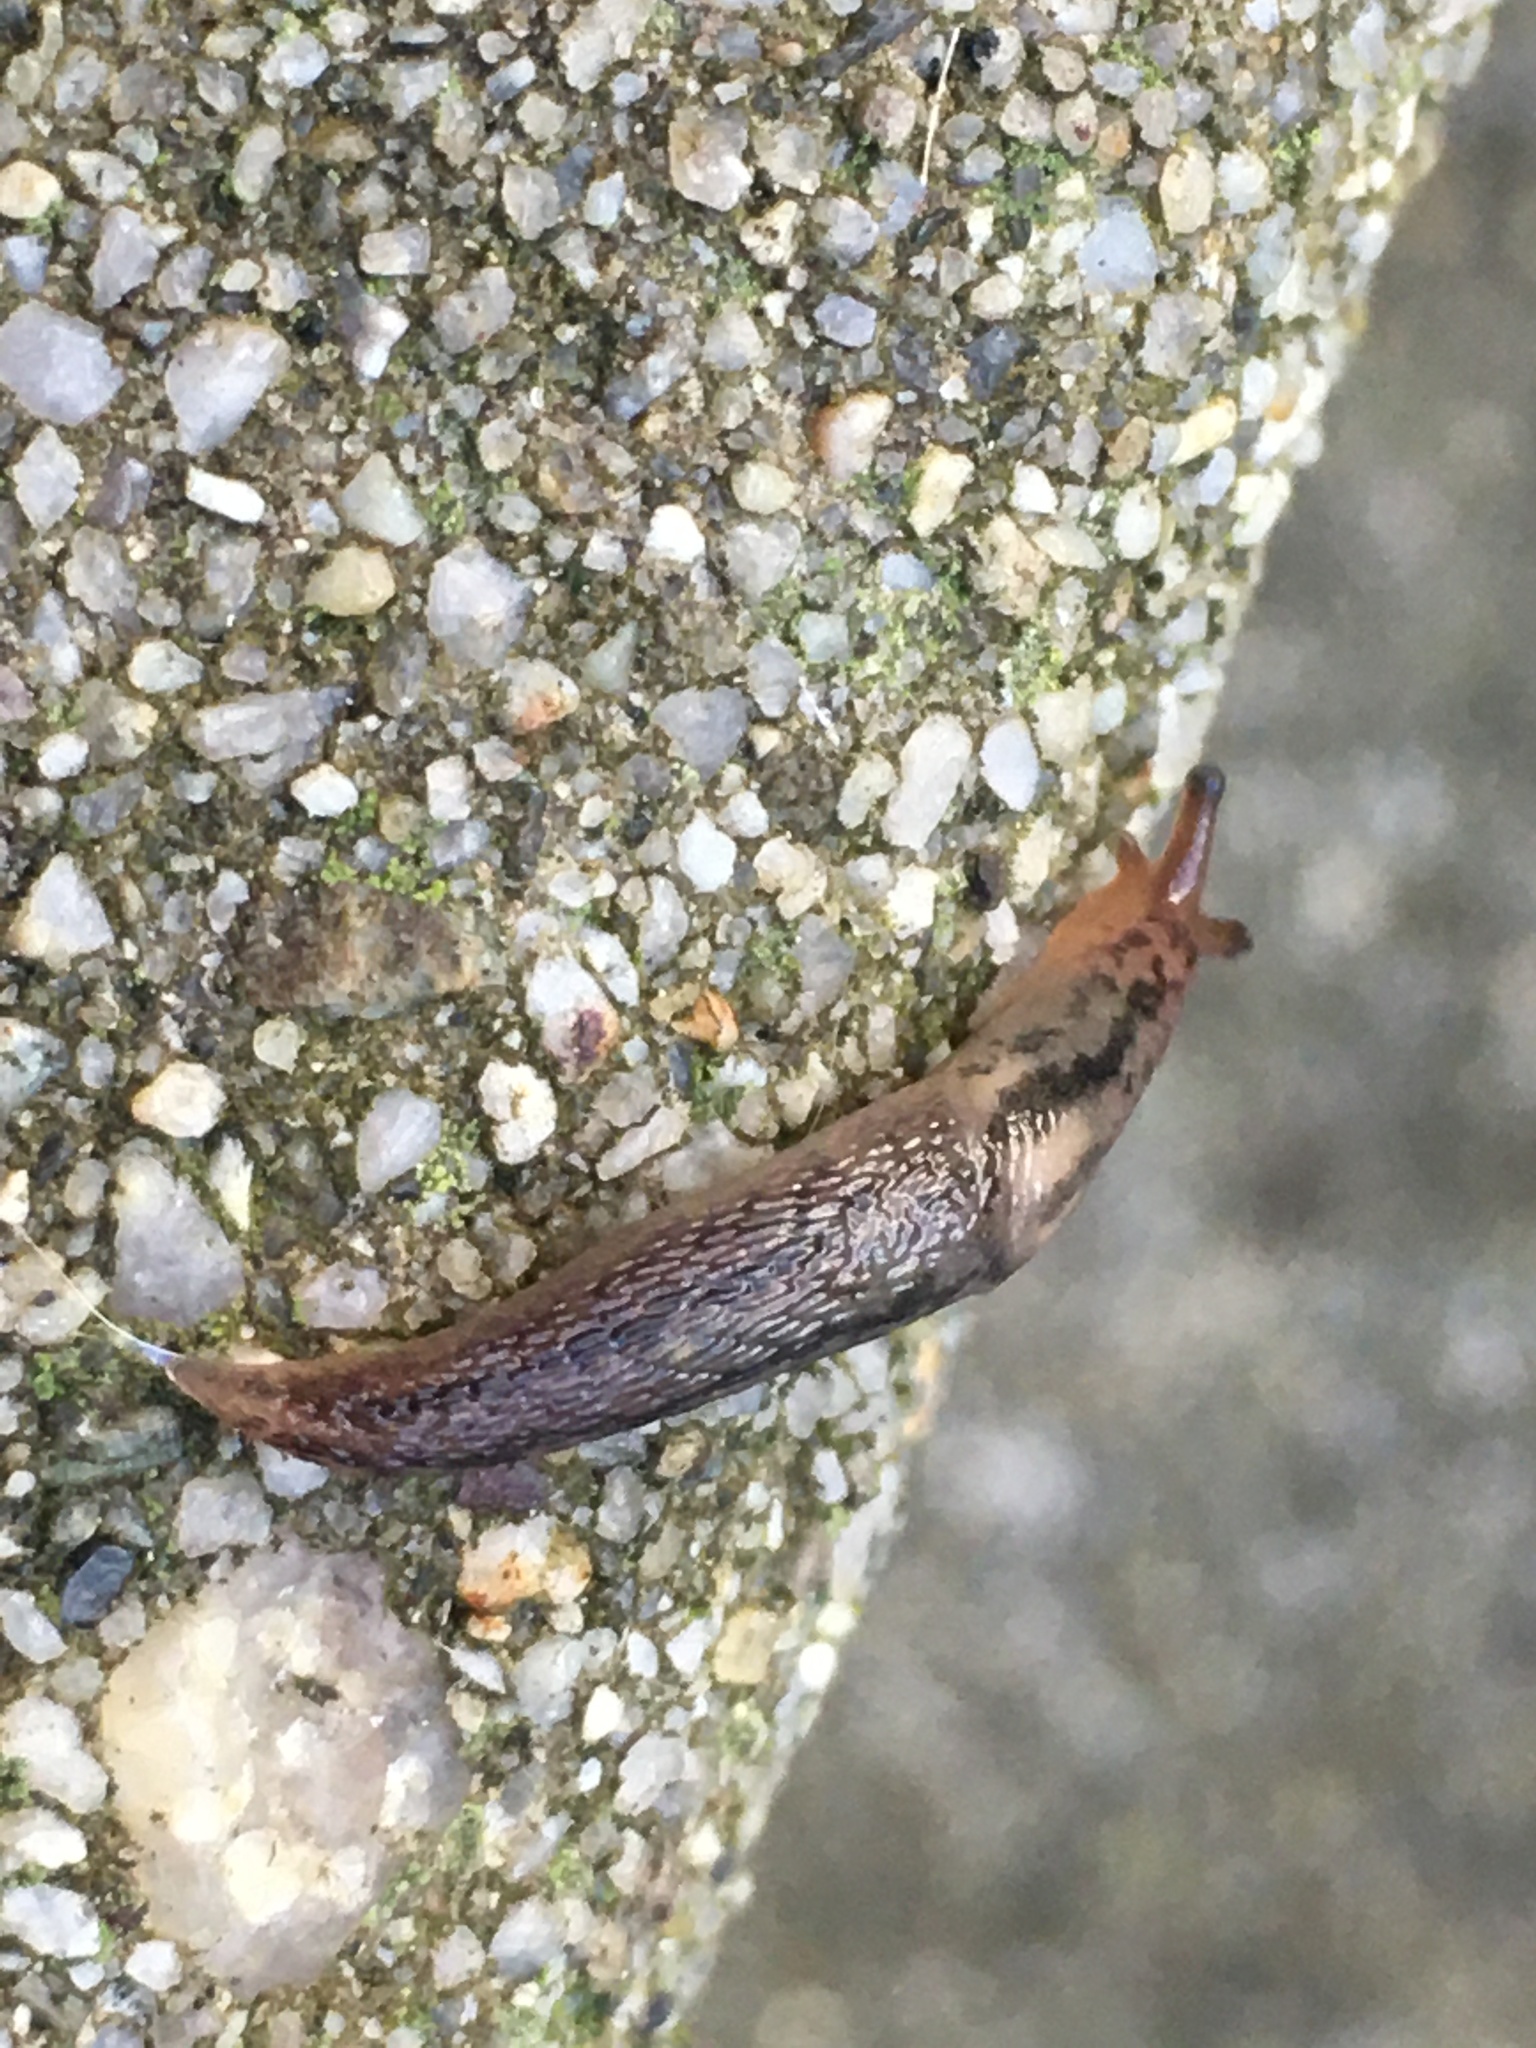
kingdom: Animalia
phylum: Mollusca
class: Gastropoda
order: Stylommatophora
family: Limacidae
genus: Ambigolimax
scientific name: Ambigolimax
